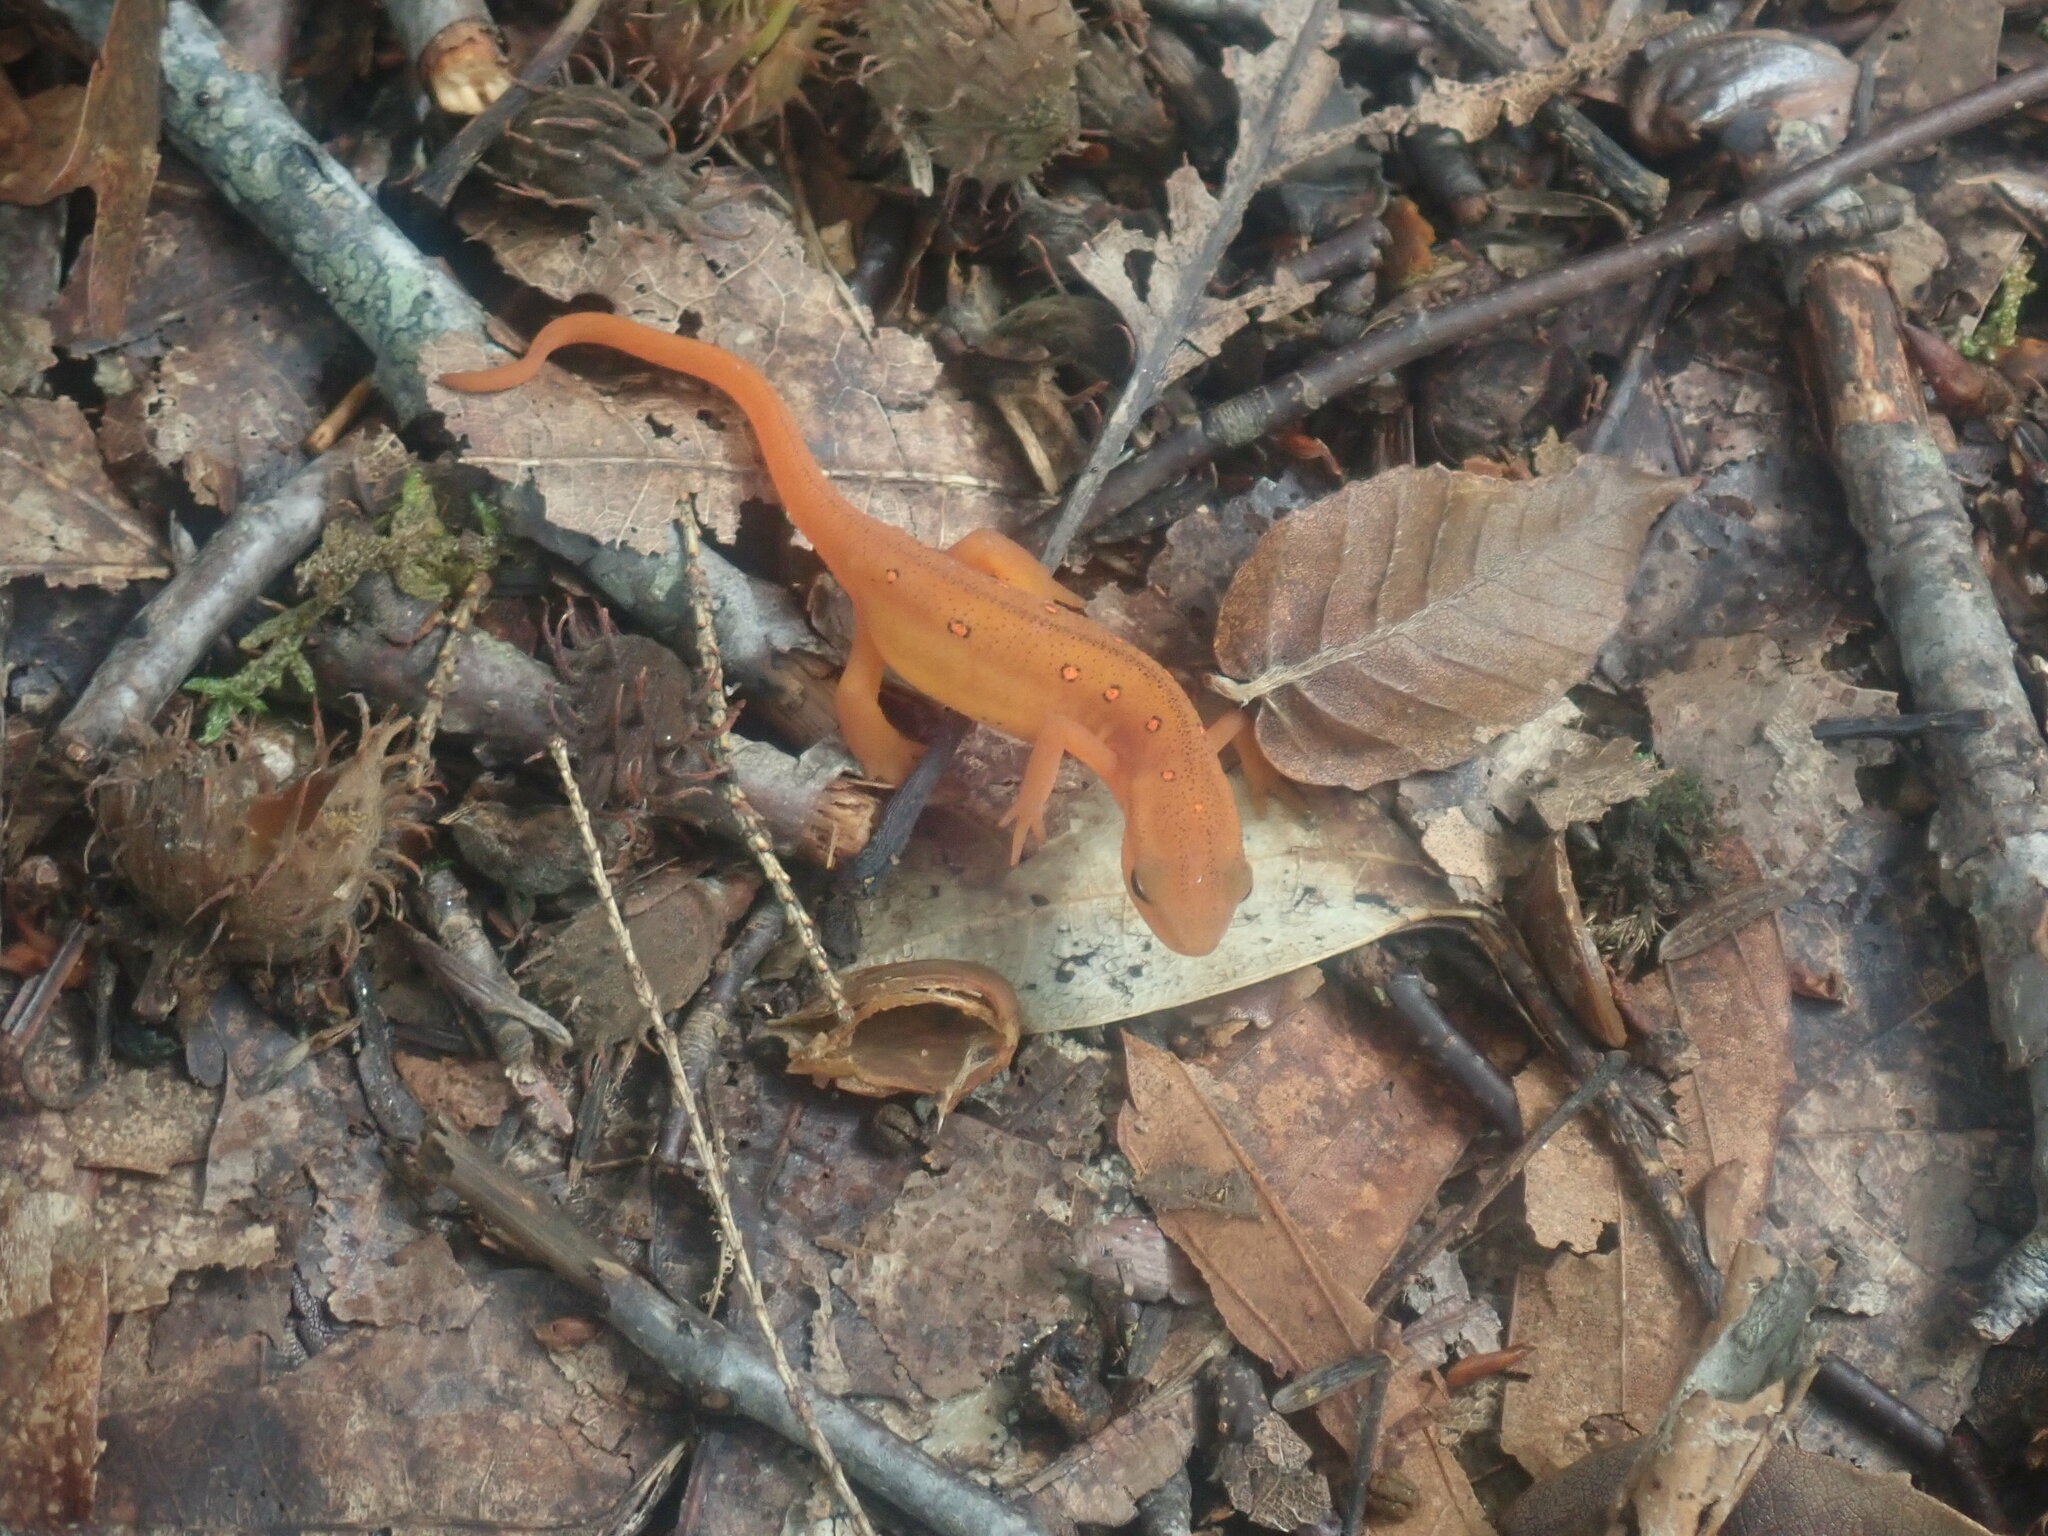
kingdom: Animalia
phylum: Chordata
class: Amphibia
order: Caudata
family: Salamandridae
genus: Notophthalmus
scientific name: Notophthalmus viridescens
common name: Eastern newt
